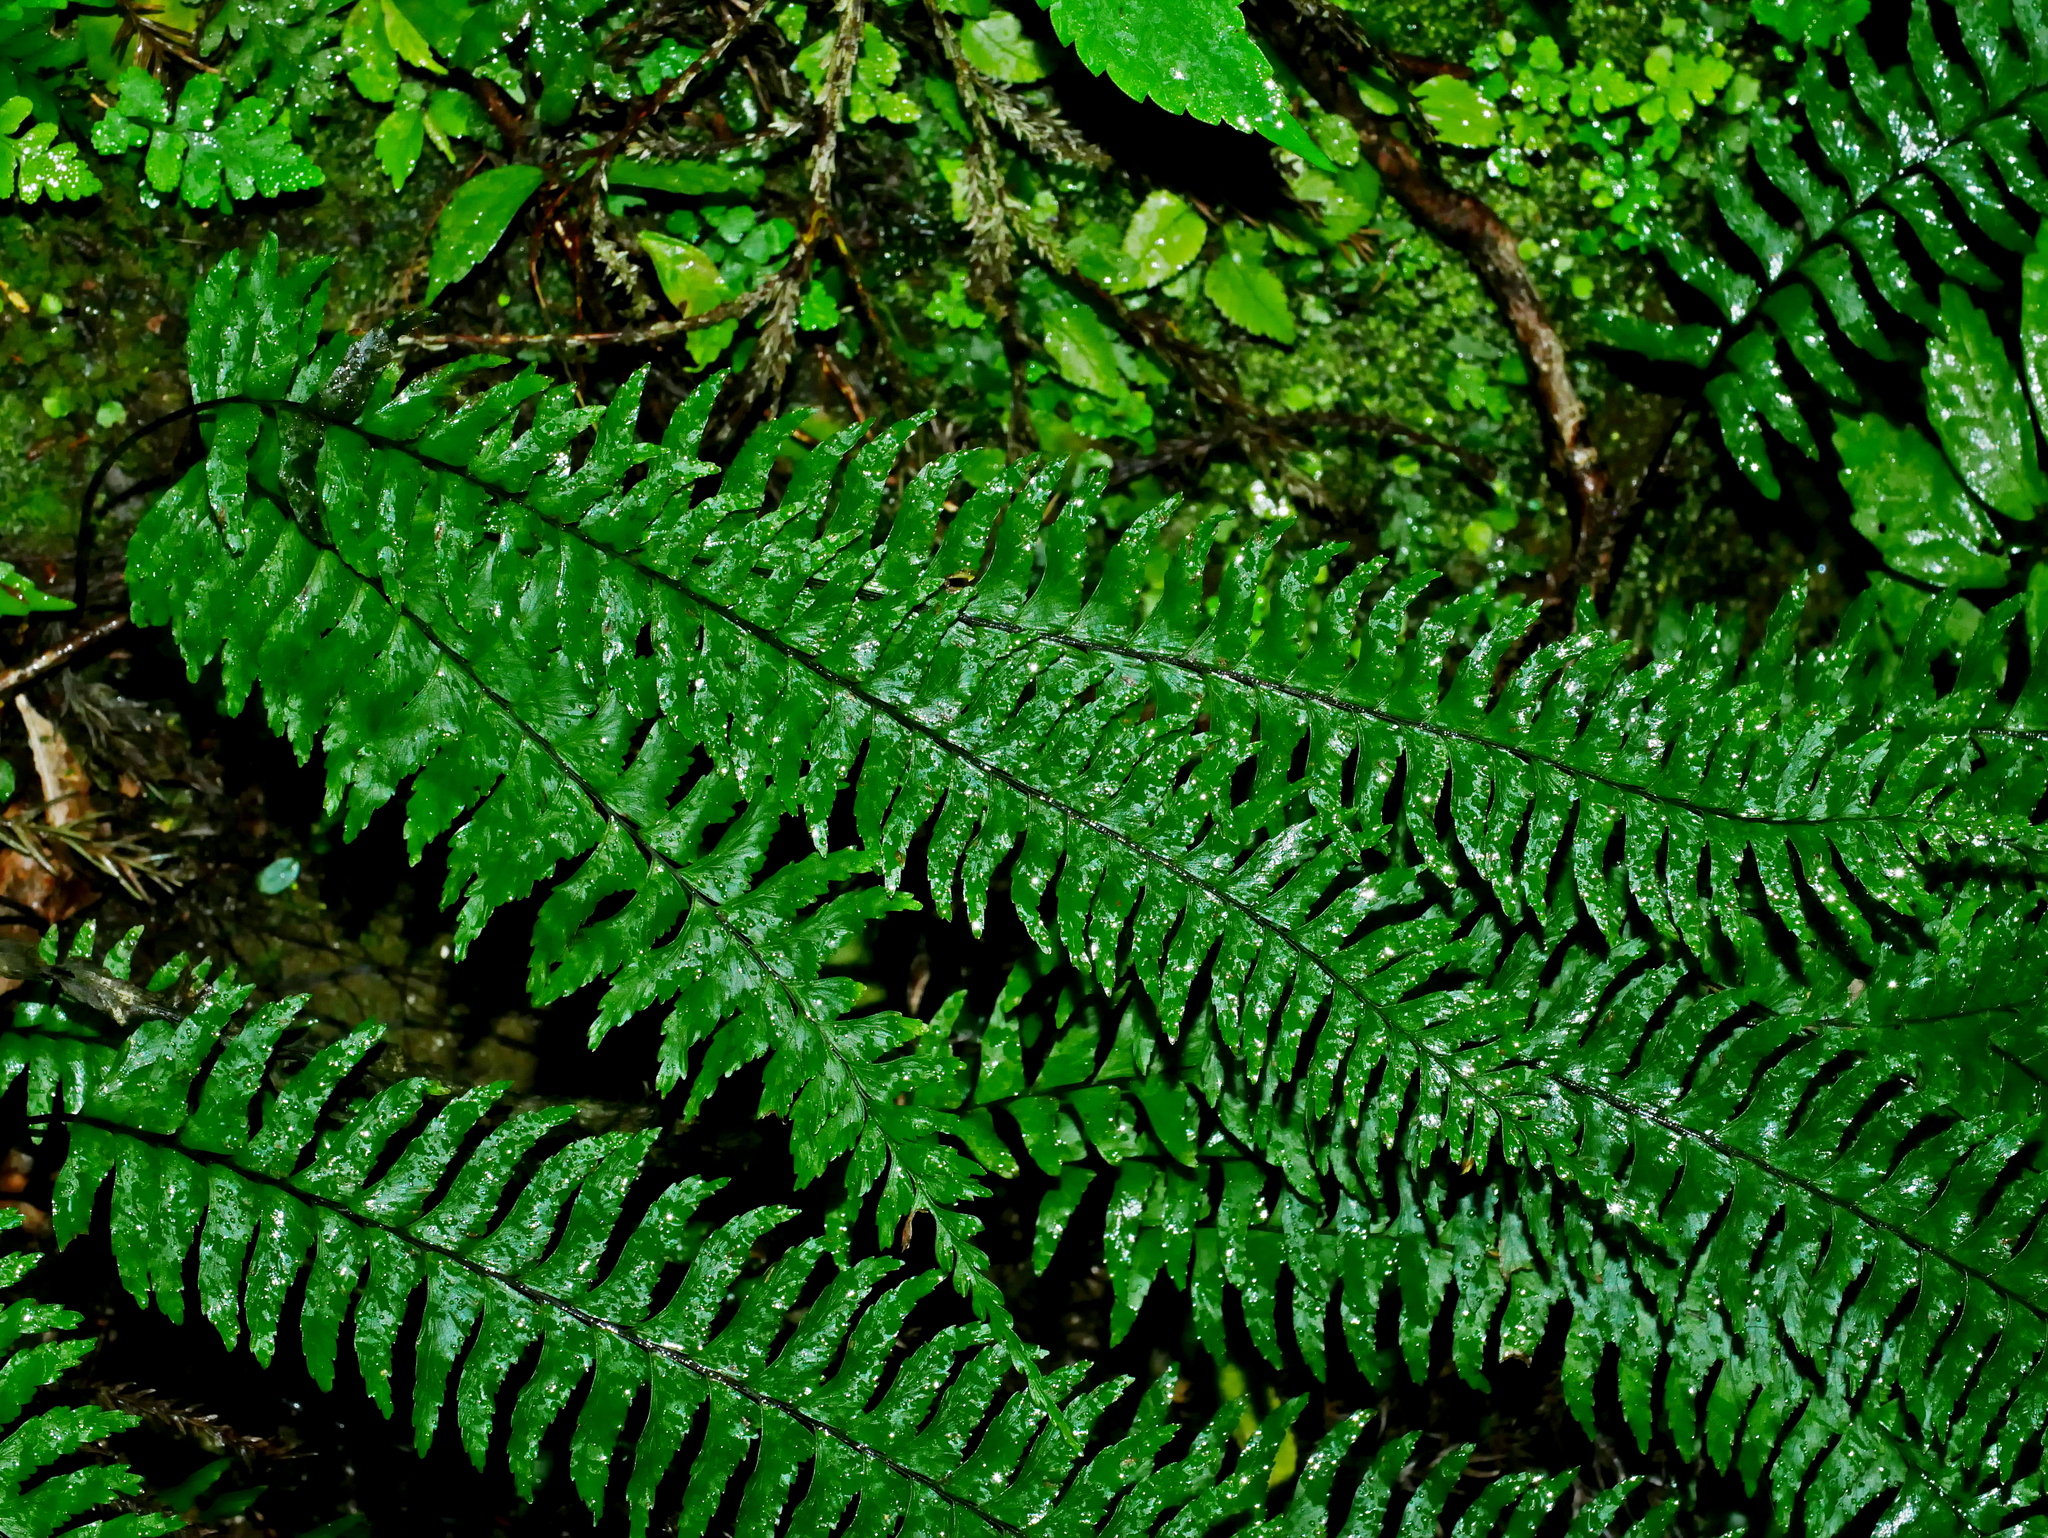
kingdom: Plantae
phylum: Tracheophyta
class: Polypodiopsida
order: Polypodiales
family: Aspleniaceae
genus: Hymenasplenium
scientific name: Hymenasplenium unilaterale
